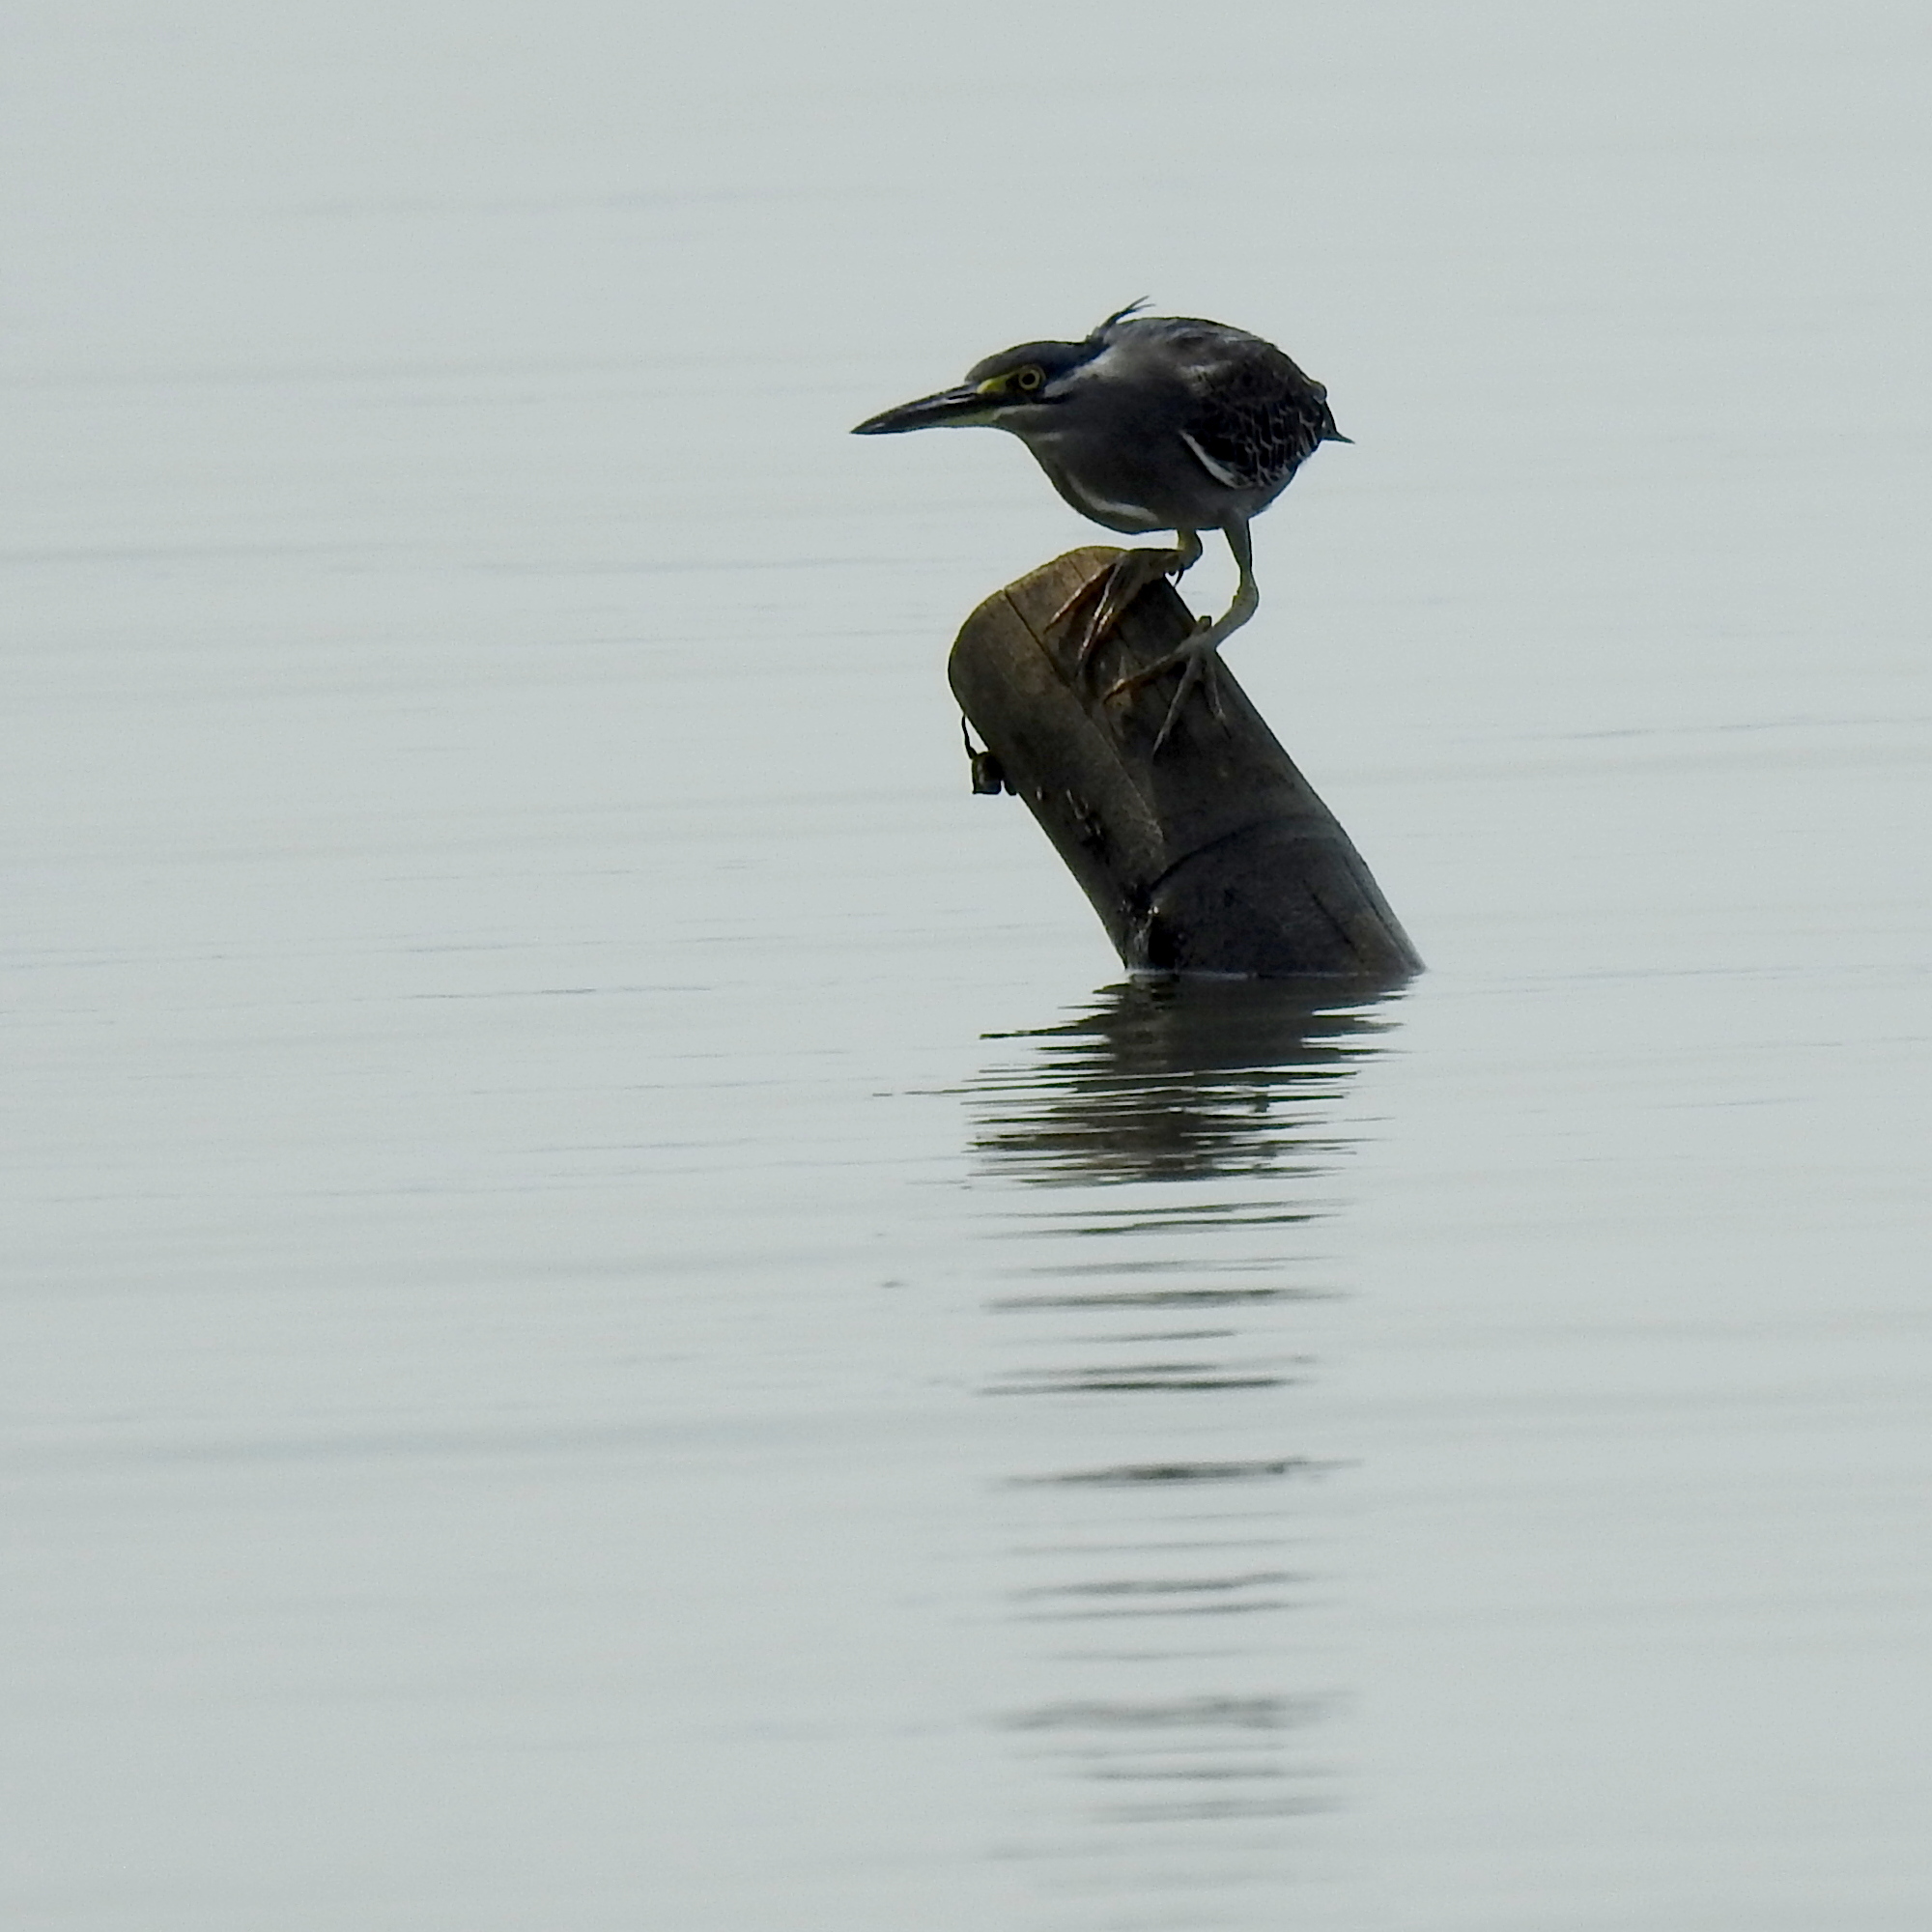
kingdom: Animalia
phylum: Chordata
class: Aves
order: Pelecaniformes
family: Ardeidae
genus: Butorides
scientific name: Butorides striata
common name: Striated heron
